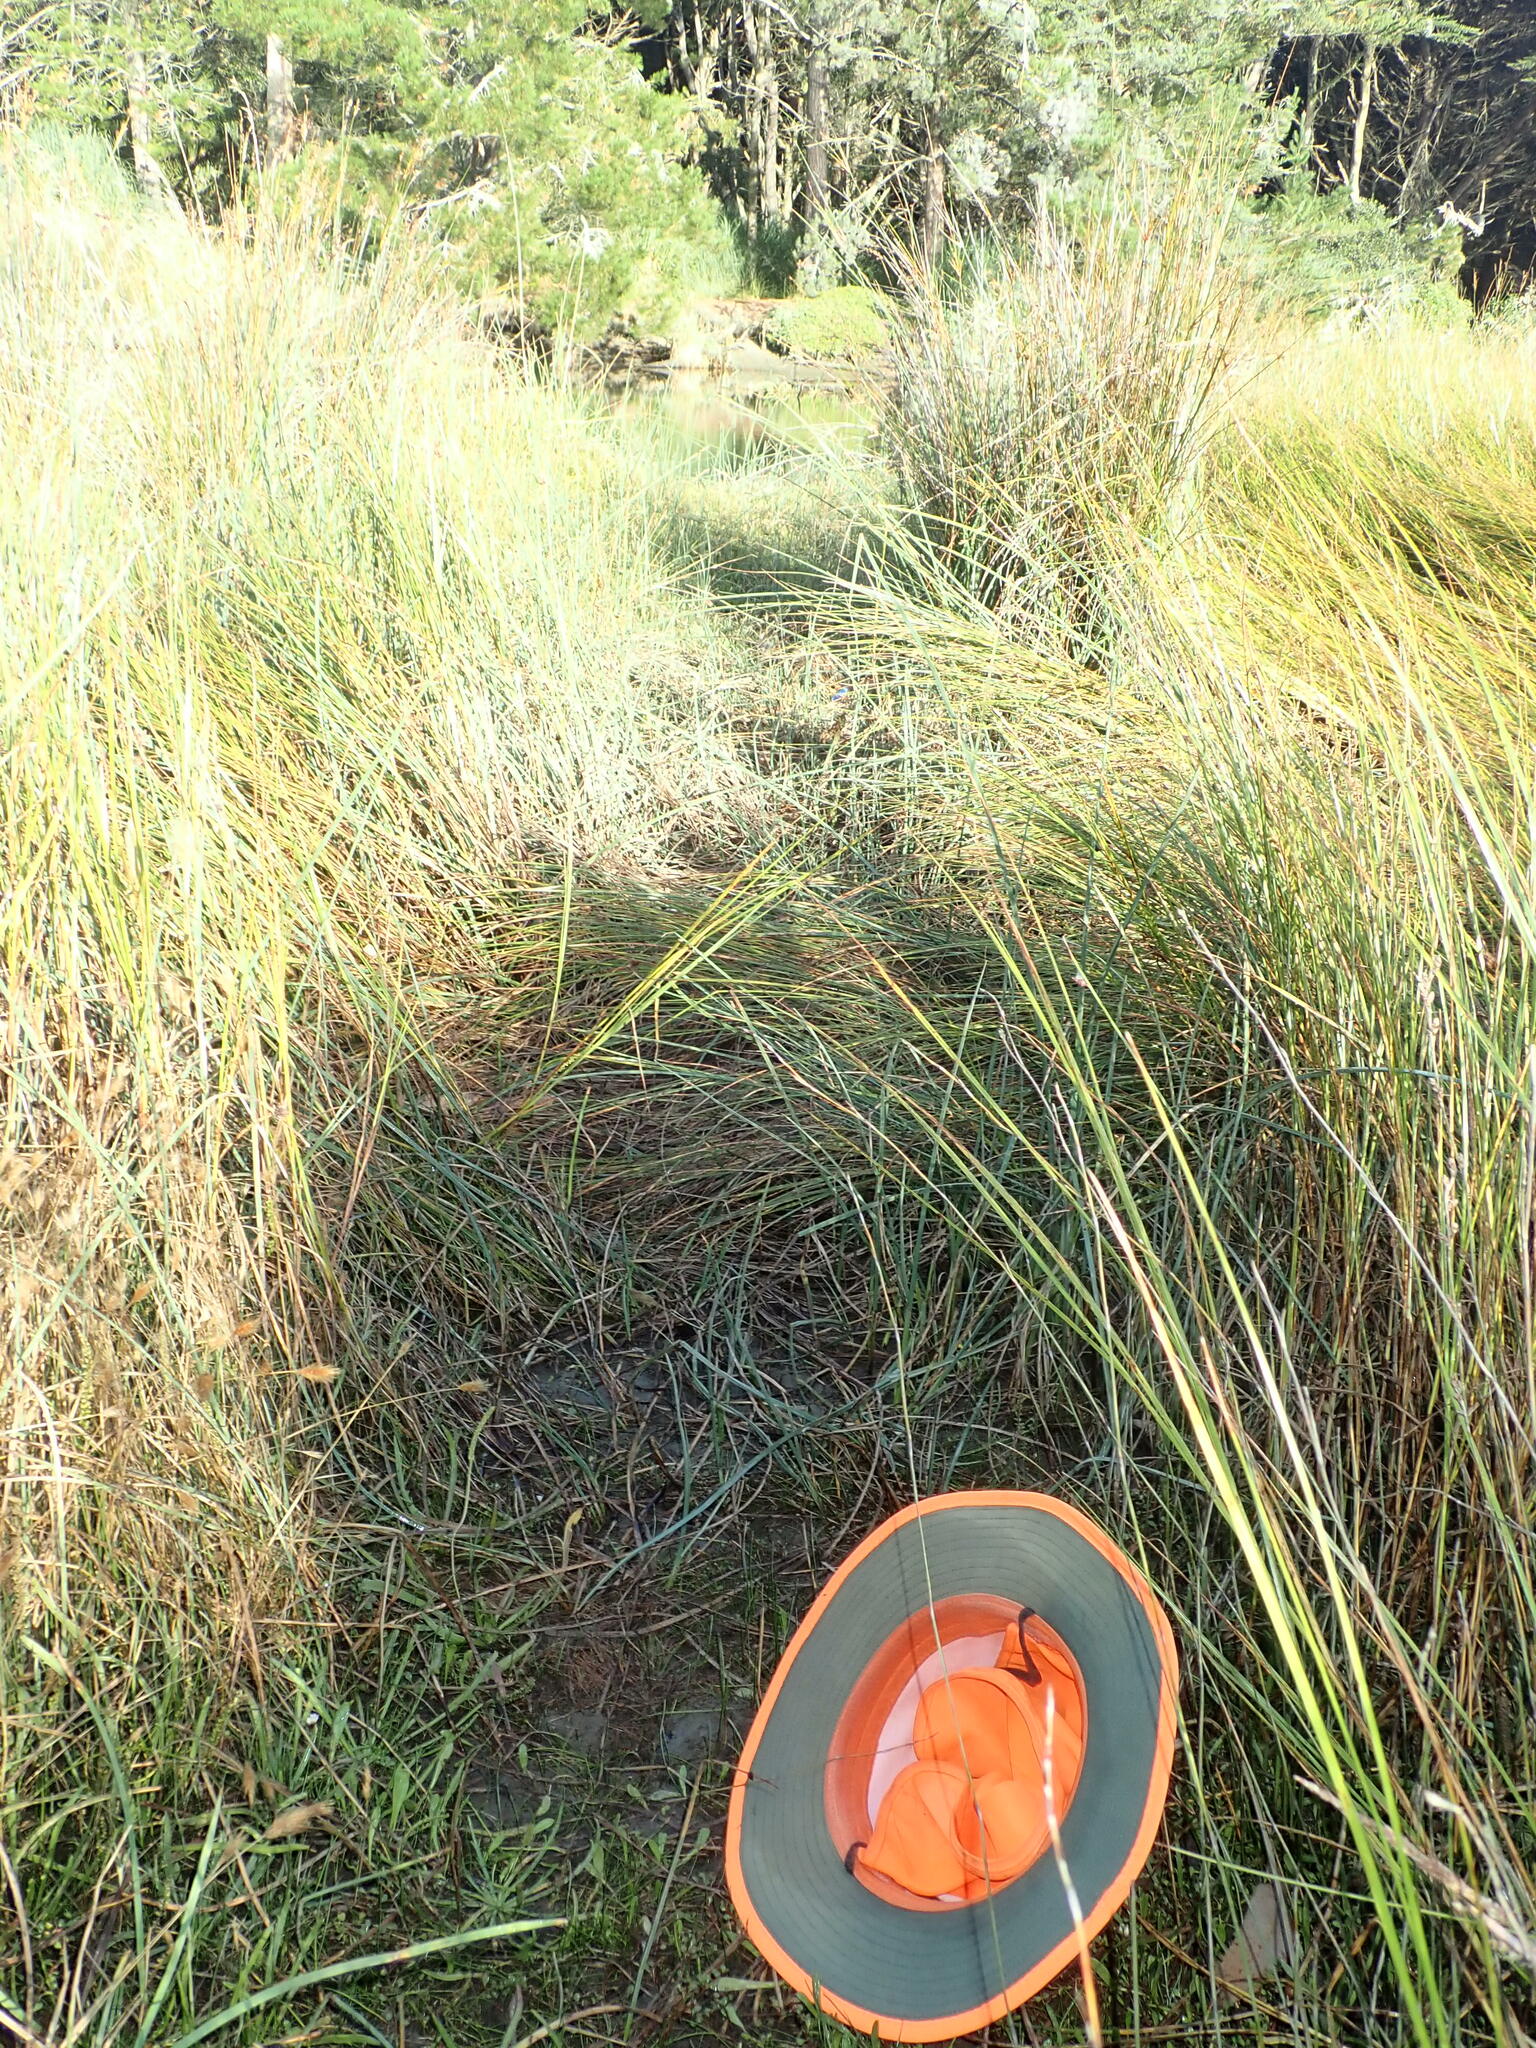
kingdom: Plantae
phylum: Tracheophyta
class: Magnoliopsida
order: Ericales
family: Primulaceae
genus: Samolus
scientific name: Samolus repens
